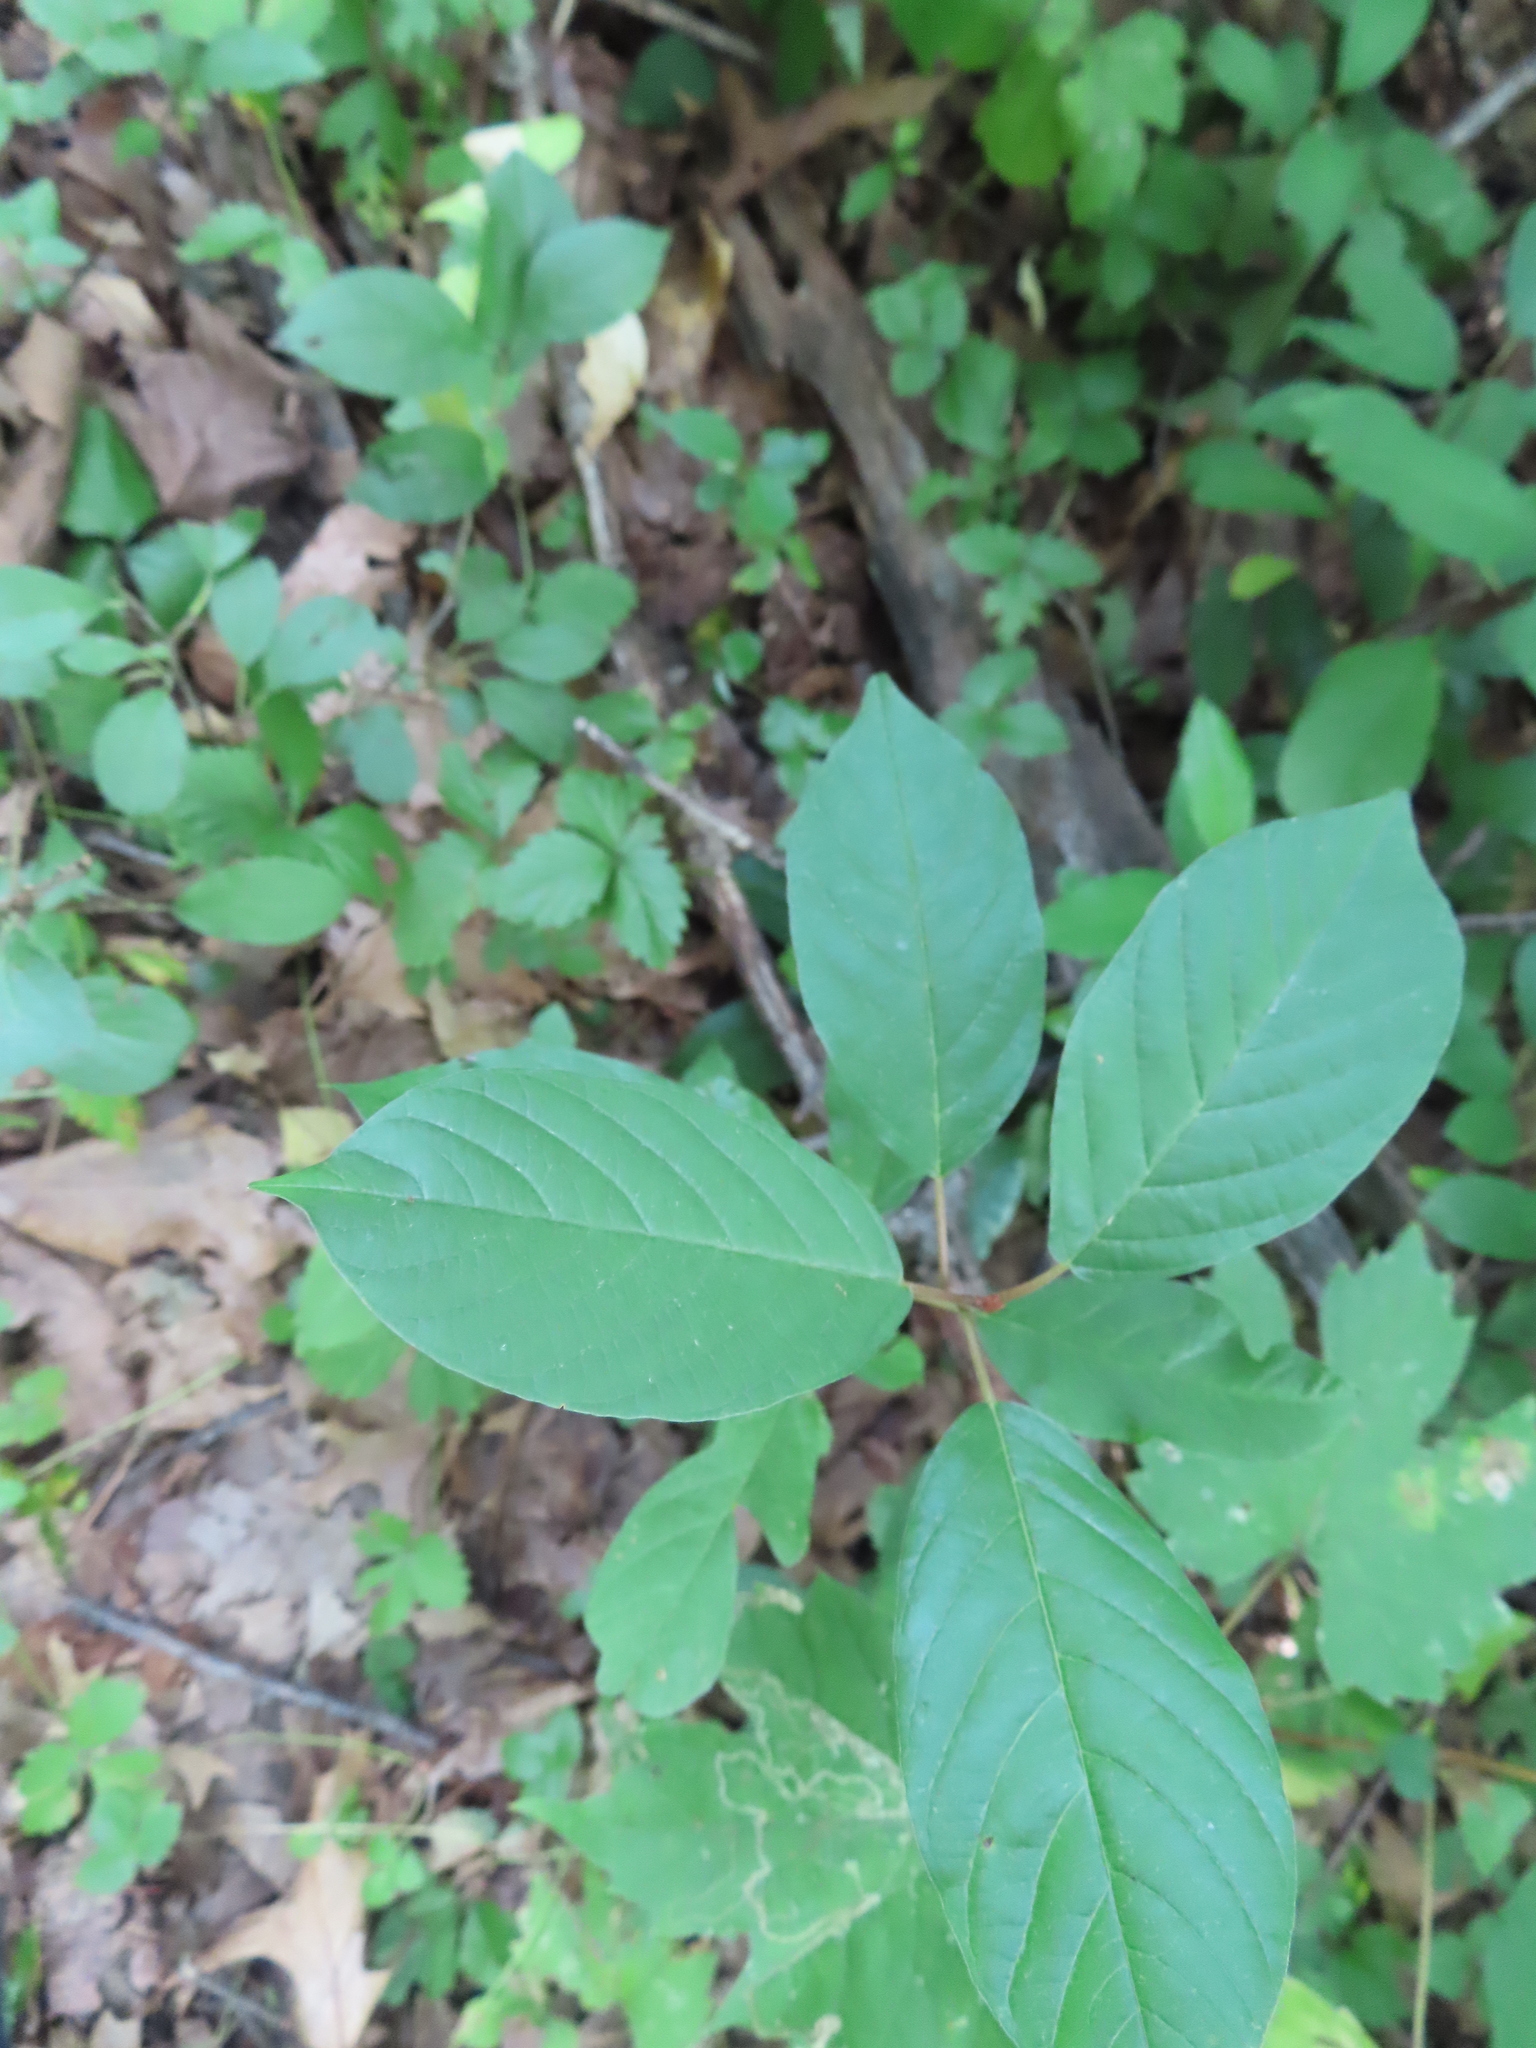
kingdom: Plantae
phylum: Tracheophyta
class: Magnoliopsida
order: Rosales
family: Rhamnaceae
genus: Frangula
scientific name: Frangula alnus
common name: Alder buckthorn
